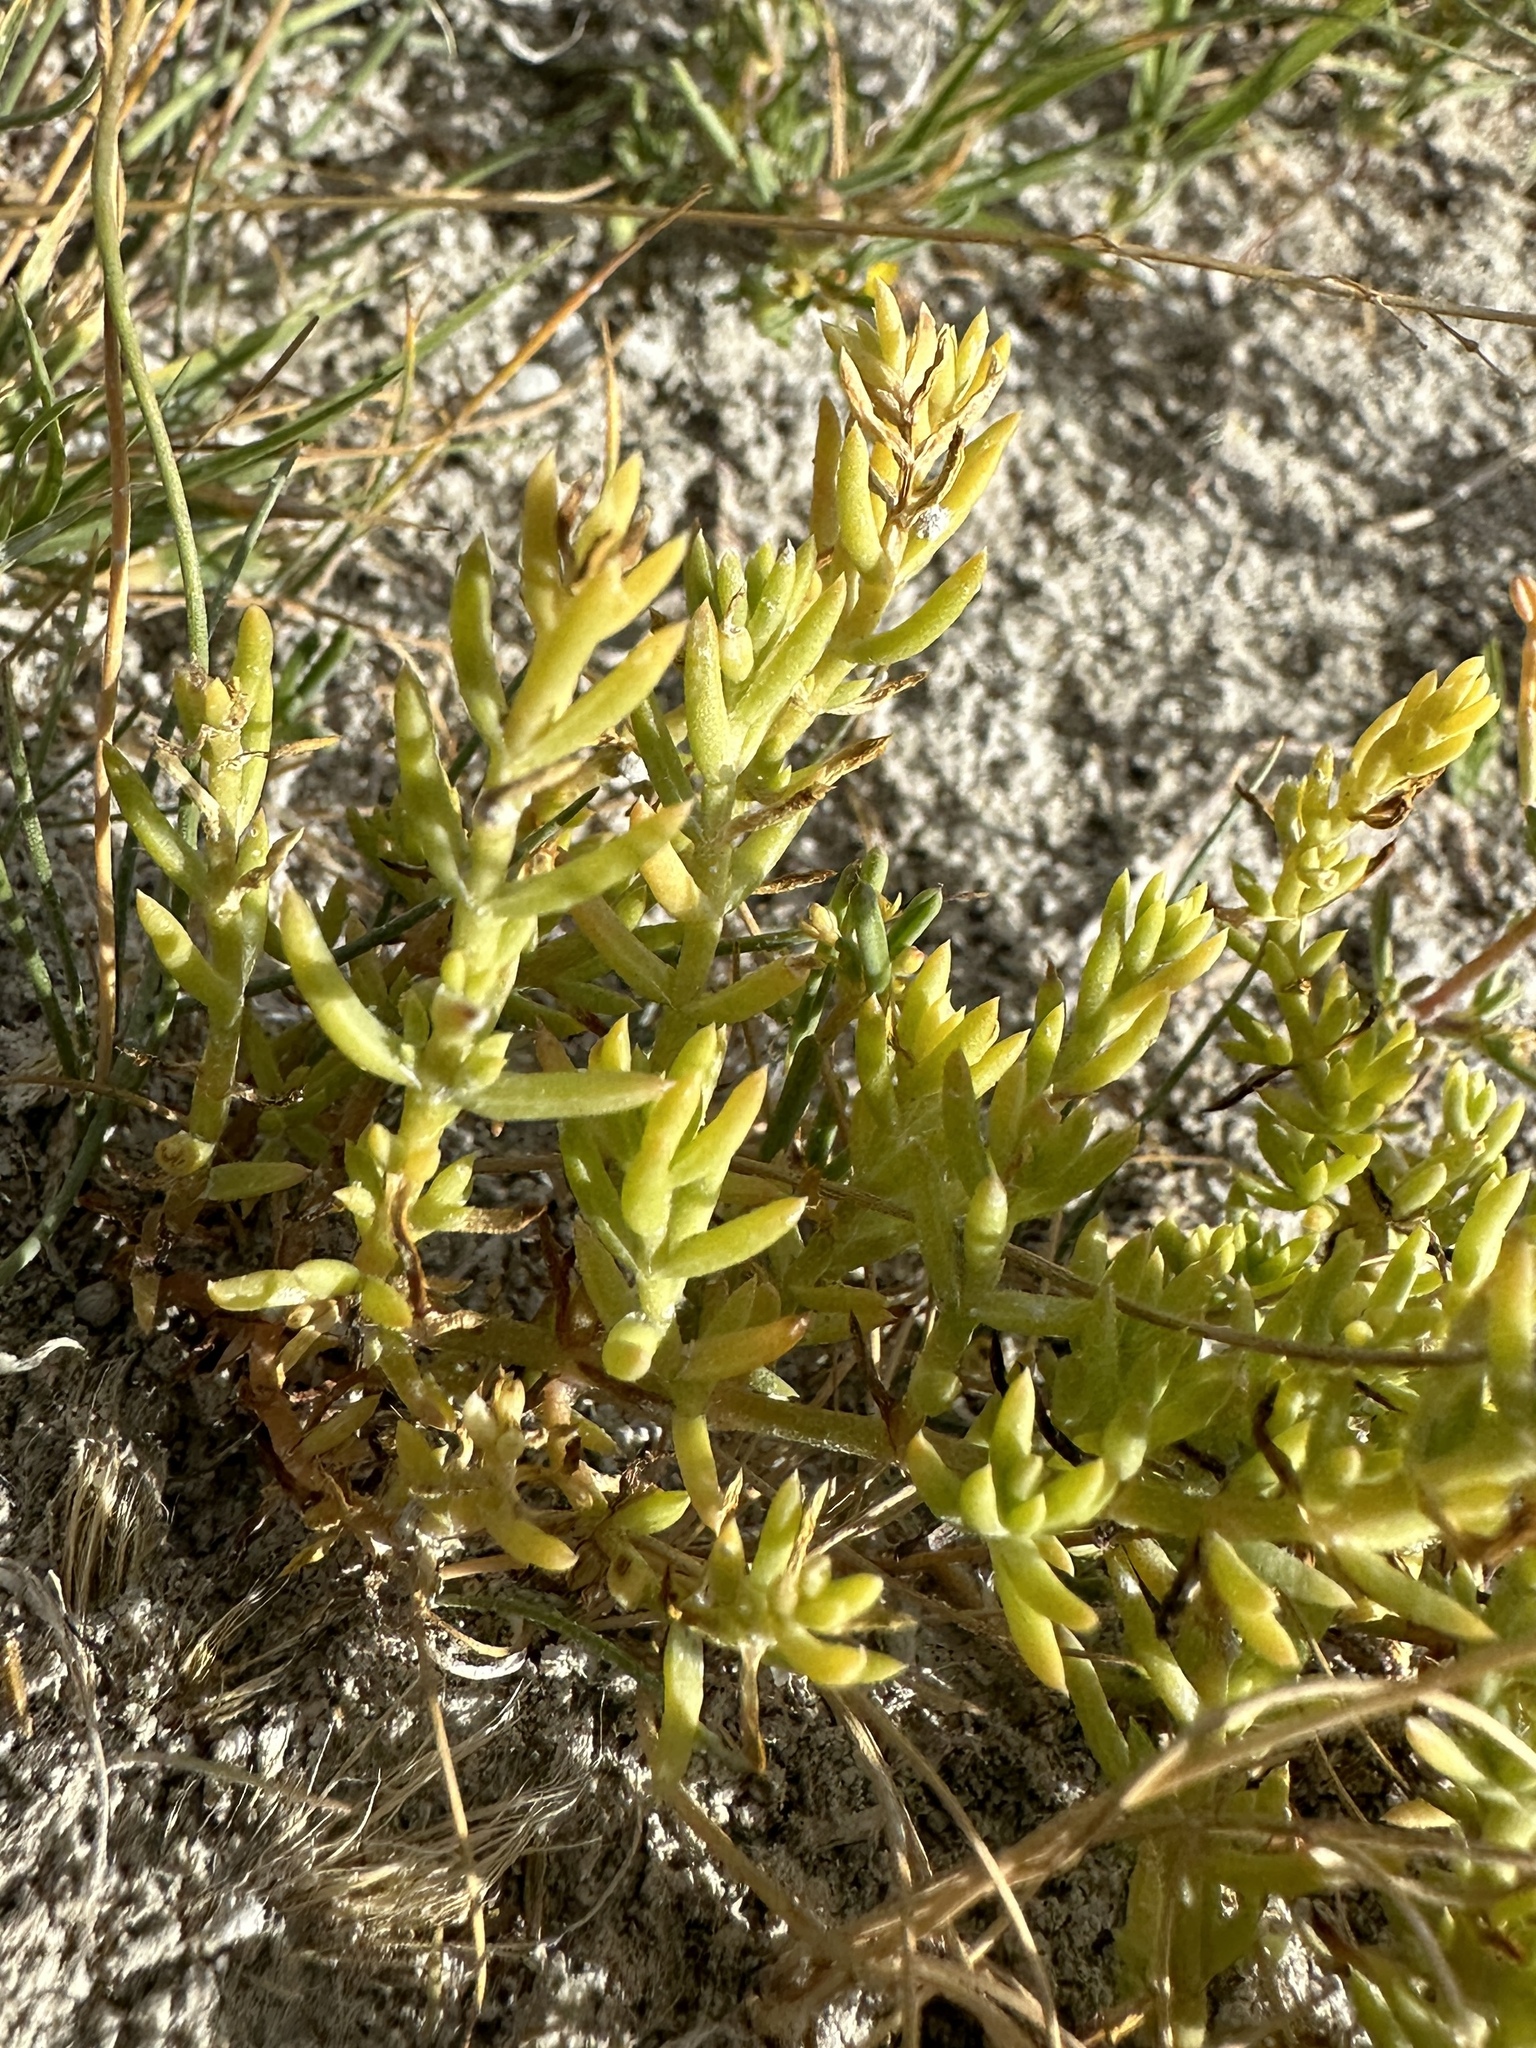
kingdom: Plantae
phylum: Tracheophyta
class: Magnoliopsida
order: Caryophyllales
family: Amaranthaceae
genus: Nitrophila
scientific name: Nitrophila occidentalis
